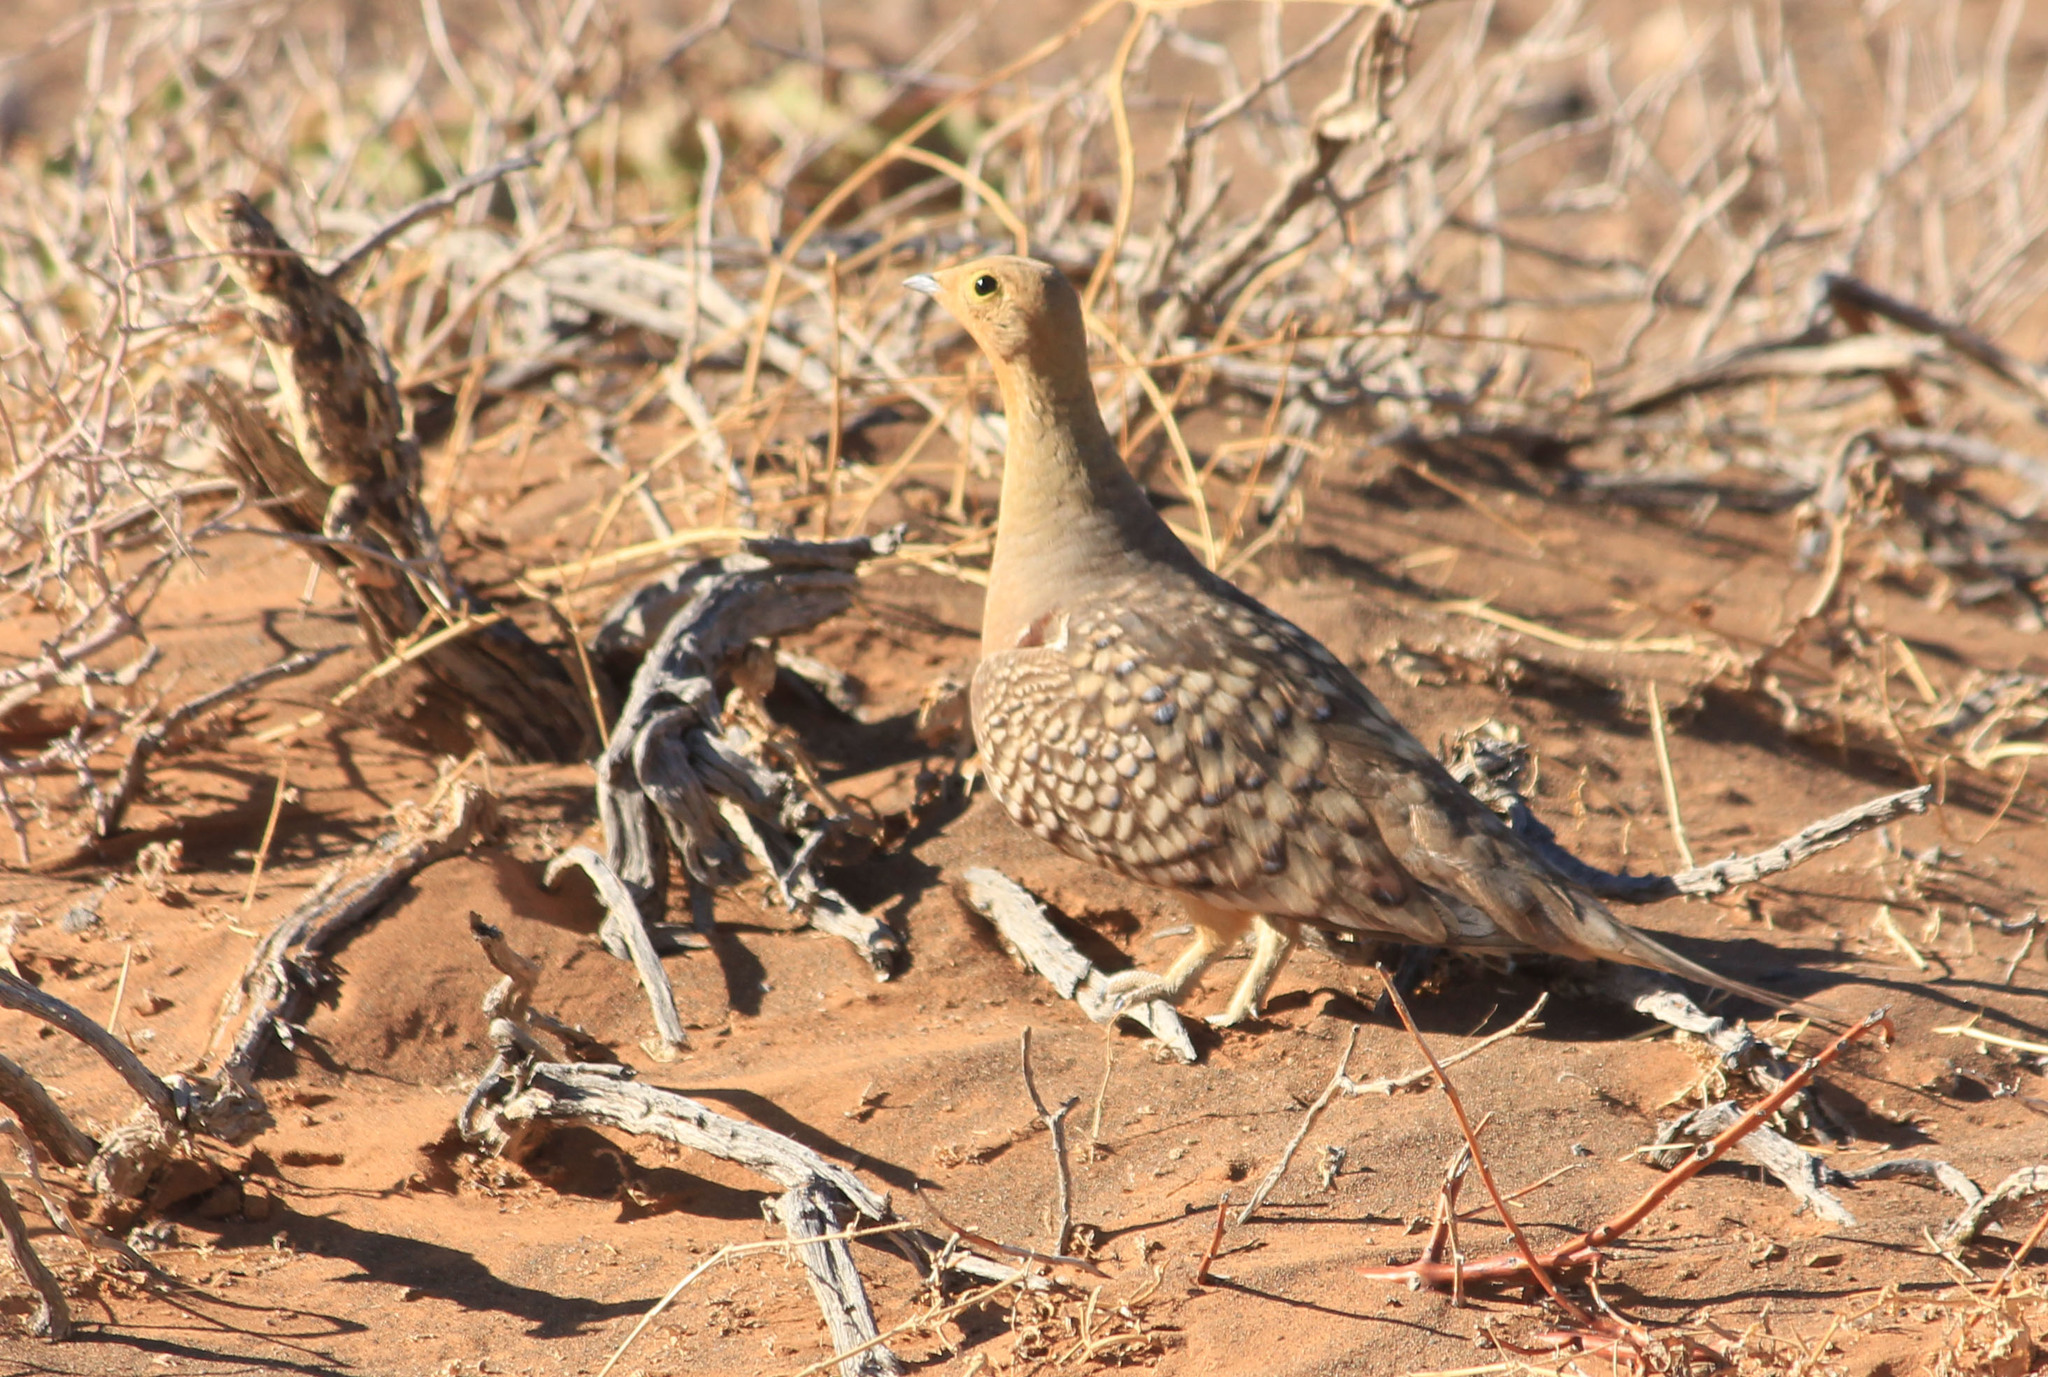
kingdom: Animalia
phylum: Chordata
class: Aves
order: Pteroclidiformes
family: Pteroclididae
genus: Pterocles
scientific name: Pterocles namaqua
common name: Namaqua sandgrouse
